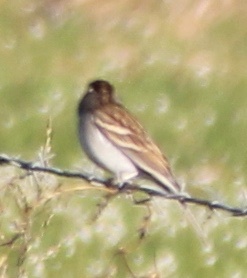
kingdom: Animalia
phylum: Chordata
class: Aves
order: Passeriformes
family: Passerellidae
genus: Spizella
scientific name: Spizella passerina
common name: Chipping sparrow
